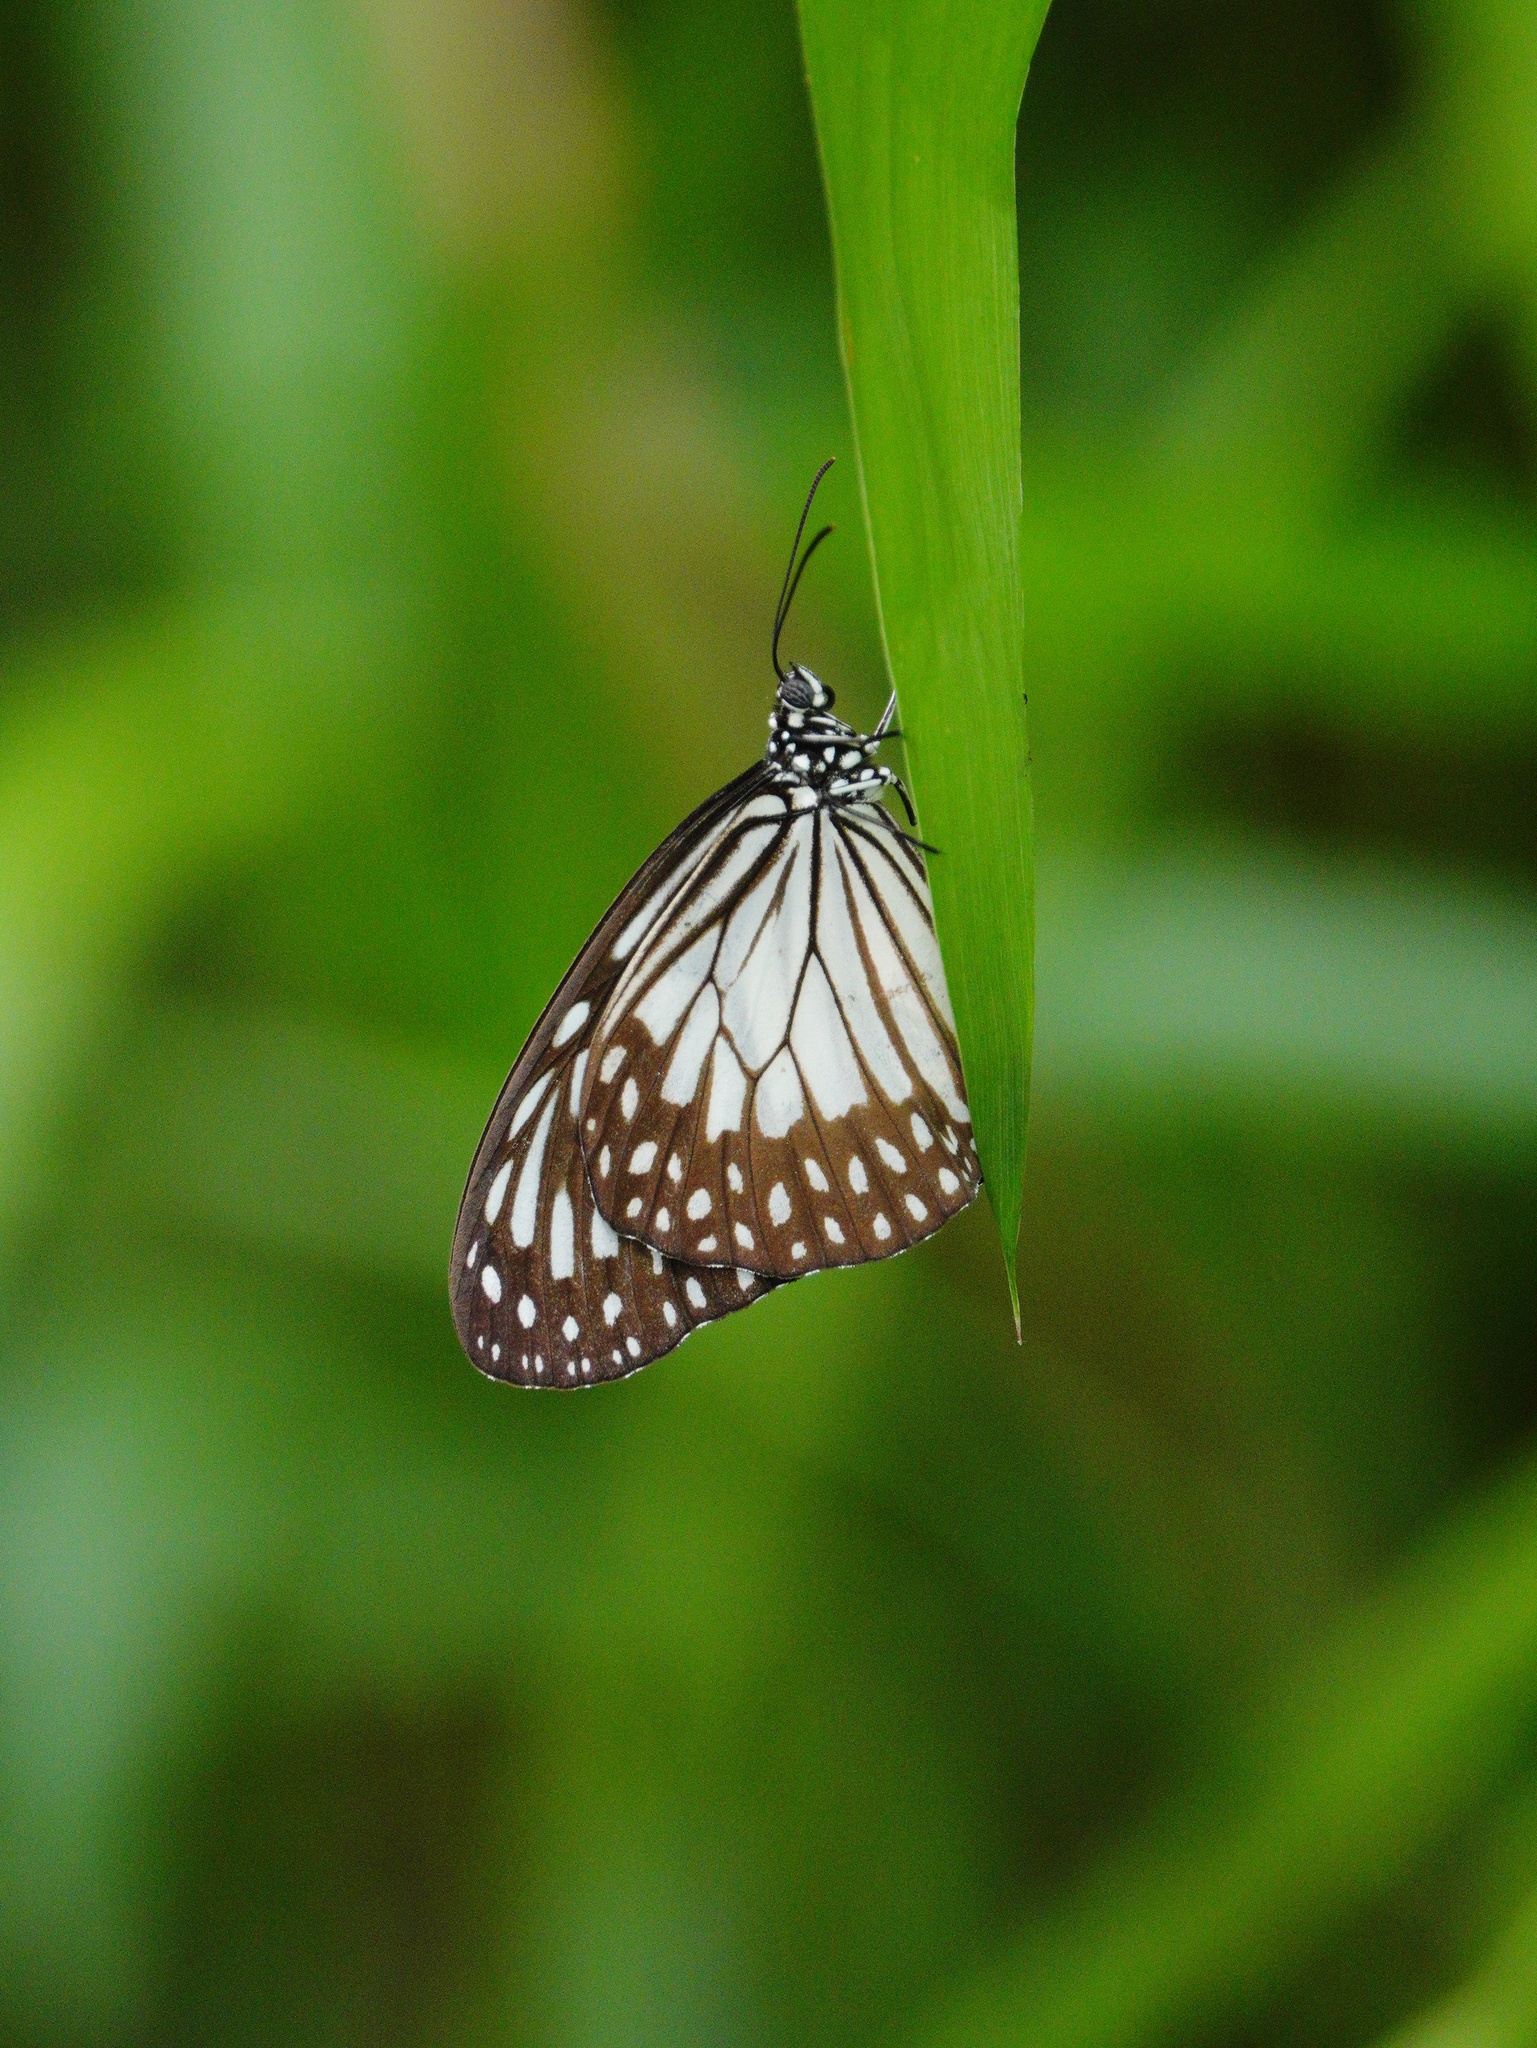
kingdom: Animalia
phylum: Arthropoda
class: Insecta
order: Lepidoptera
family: Nymphalidae
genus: Ideopsis
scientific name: Ideopsis juventa
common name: Grey glassy tiger
